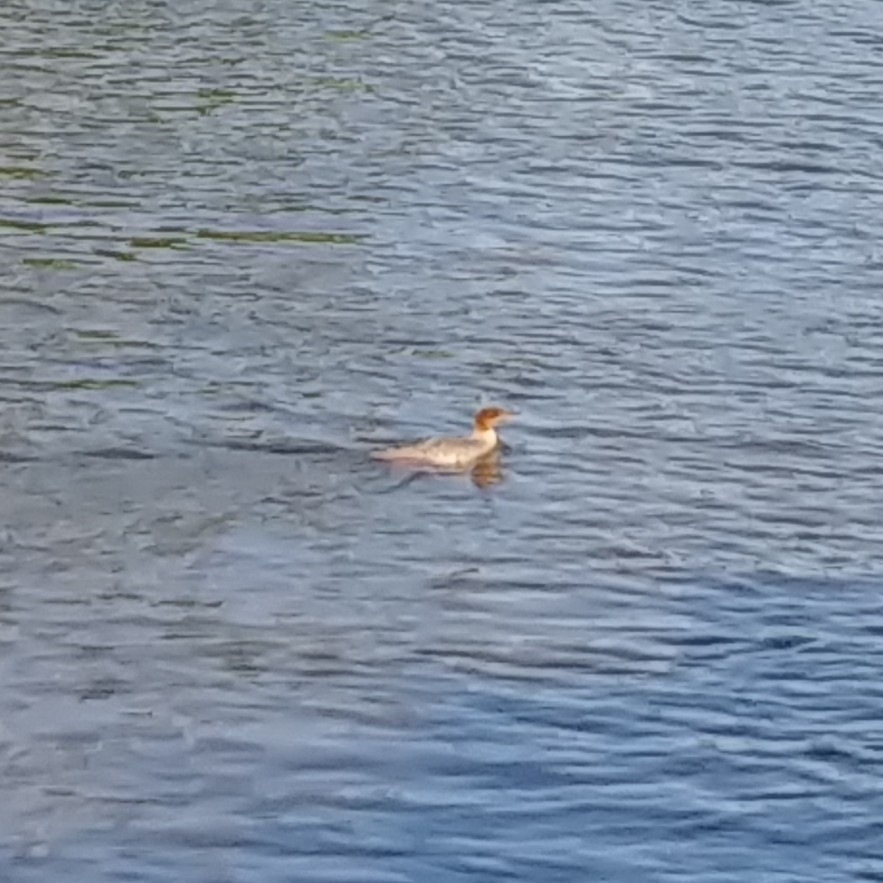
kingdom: Animalia
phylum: Chordata
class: Aves
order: Anseriformes
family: Anatidae
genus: Mergus
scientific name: Mergus merganser
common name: Common merganser
